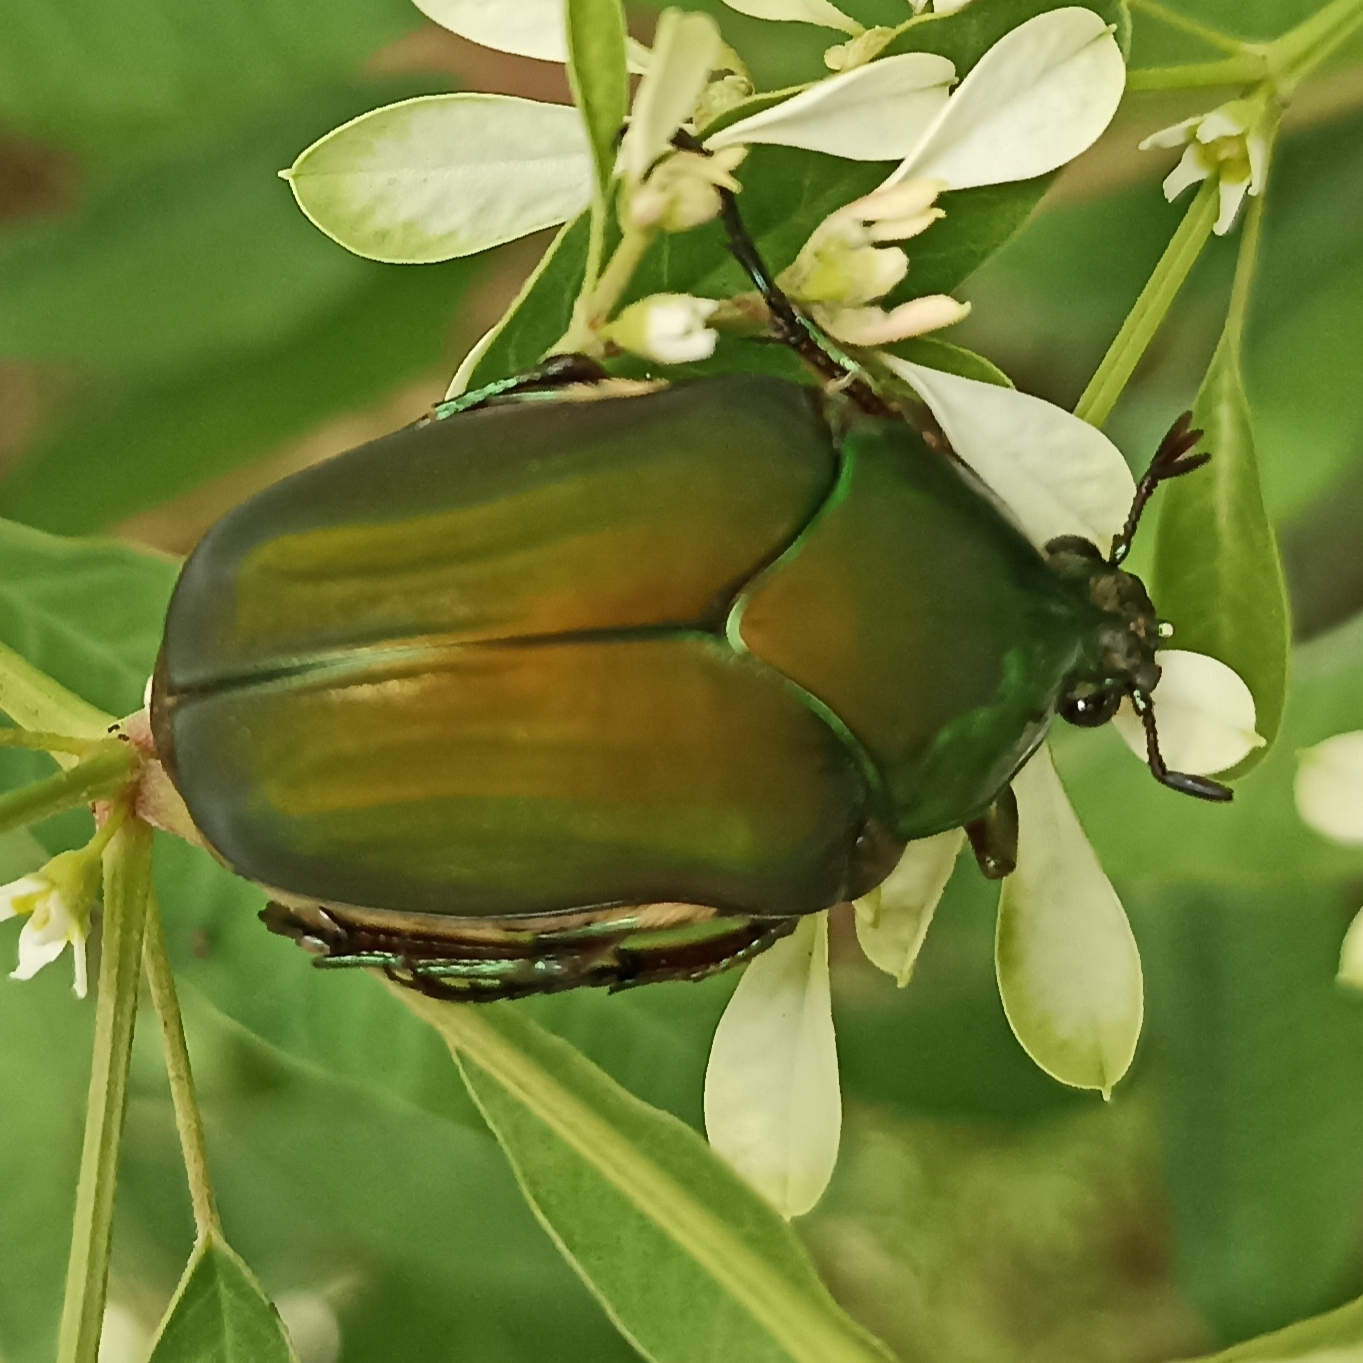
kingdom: Animalia
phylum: Arthropoda
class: Insecta
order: Coleoptera
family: Scarabaeidae
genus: Cotinis
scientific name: Cotinis mutabilis
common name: Figeater beetle
